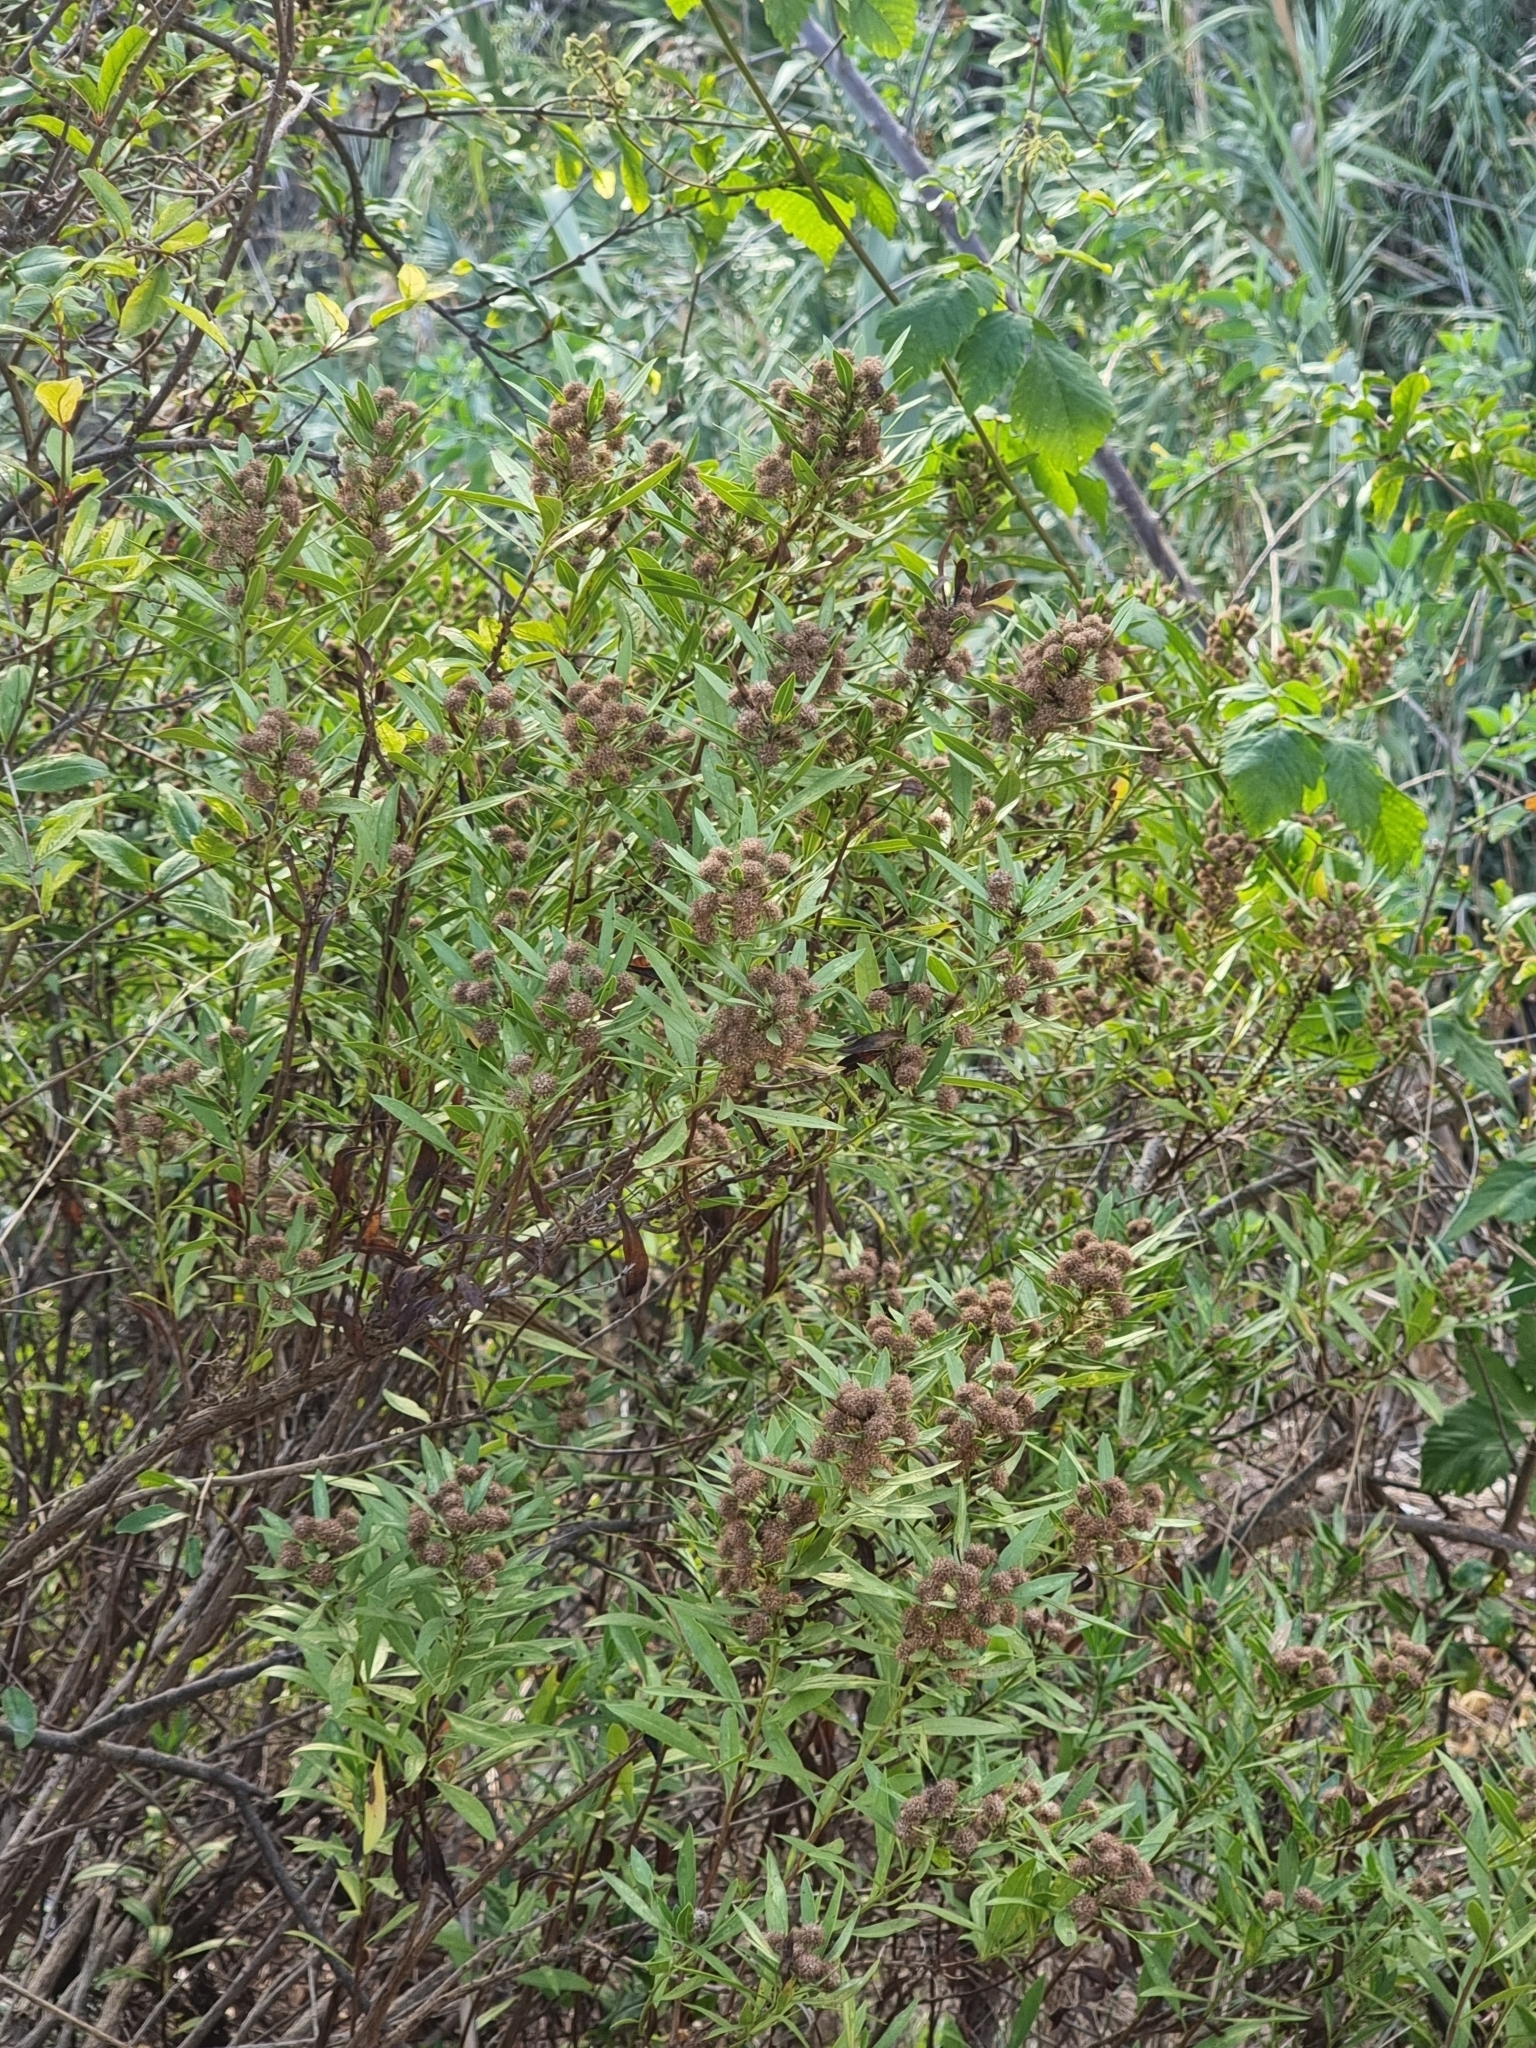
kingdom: Plantae
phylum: Tracheophyta
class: Magnoliopsida
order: Lamiales
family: Plantaginaceae
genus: Globularia
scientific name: Globularia salicina
